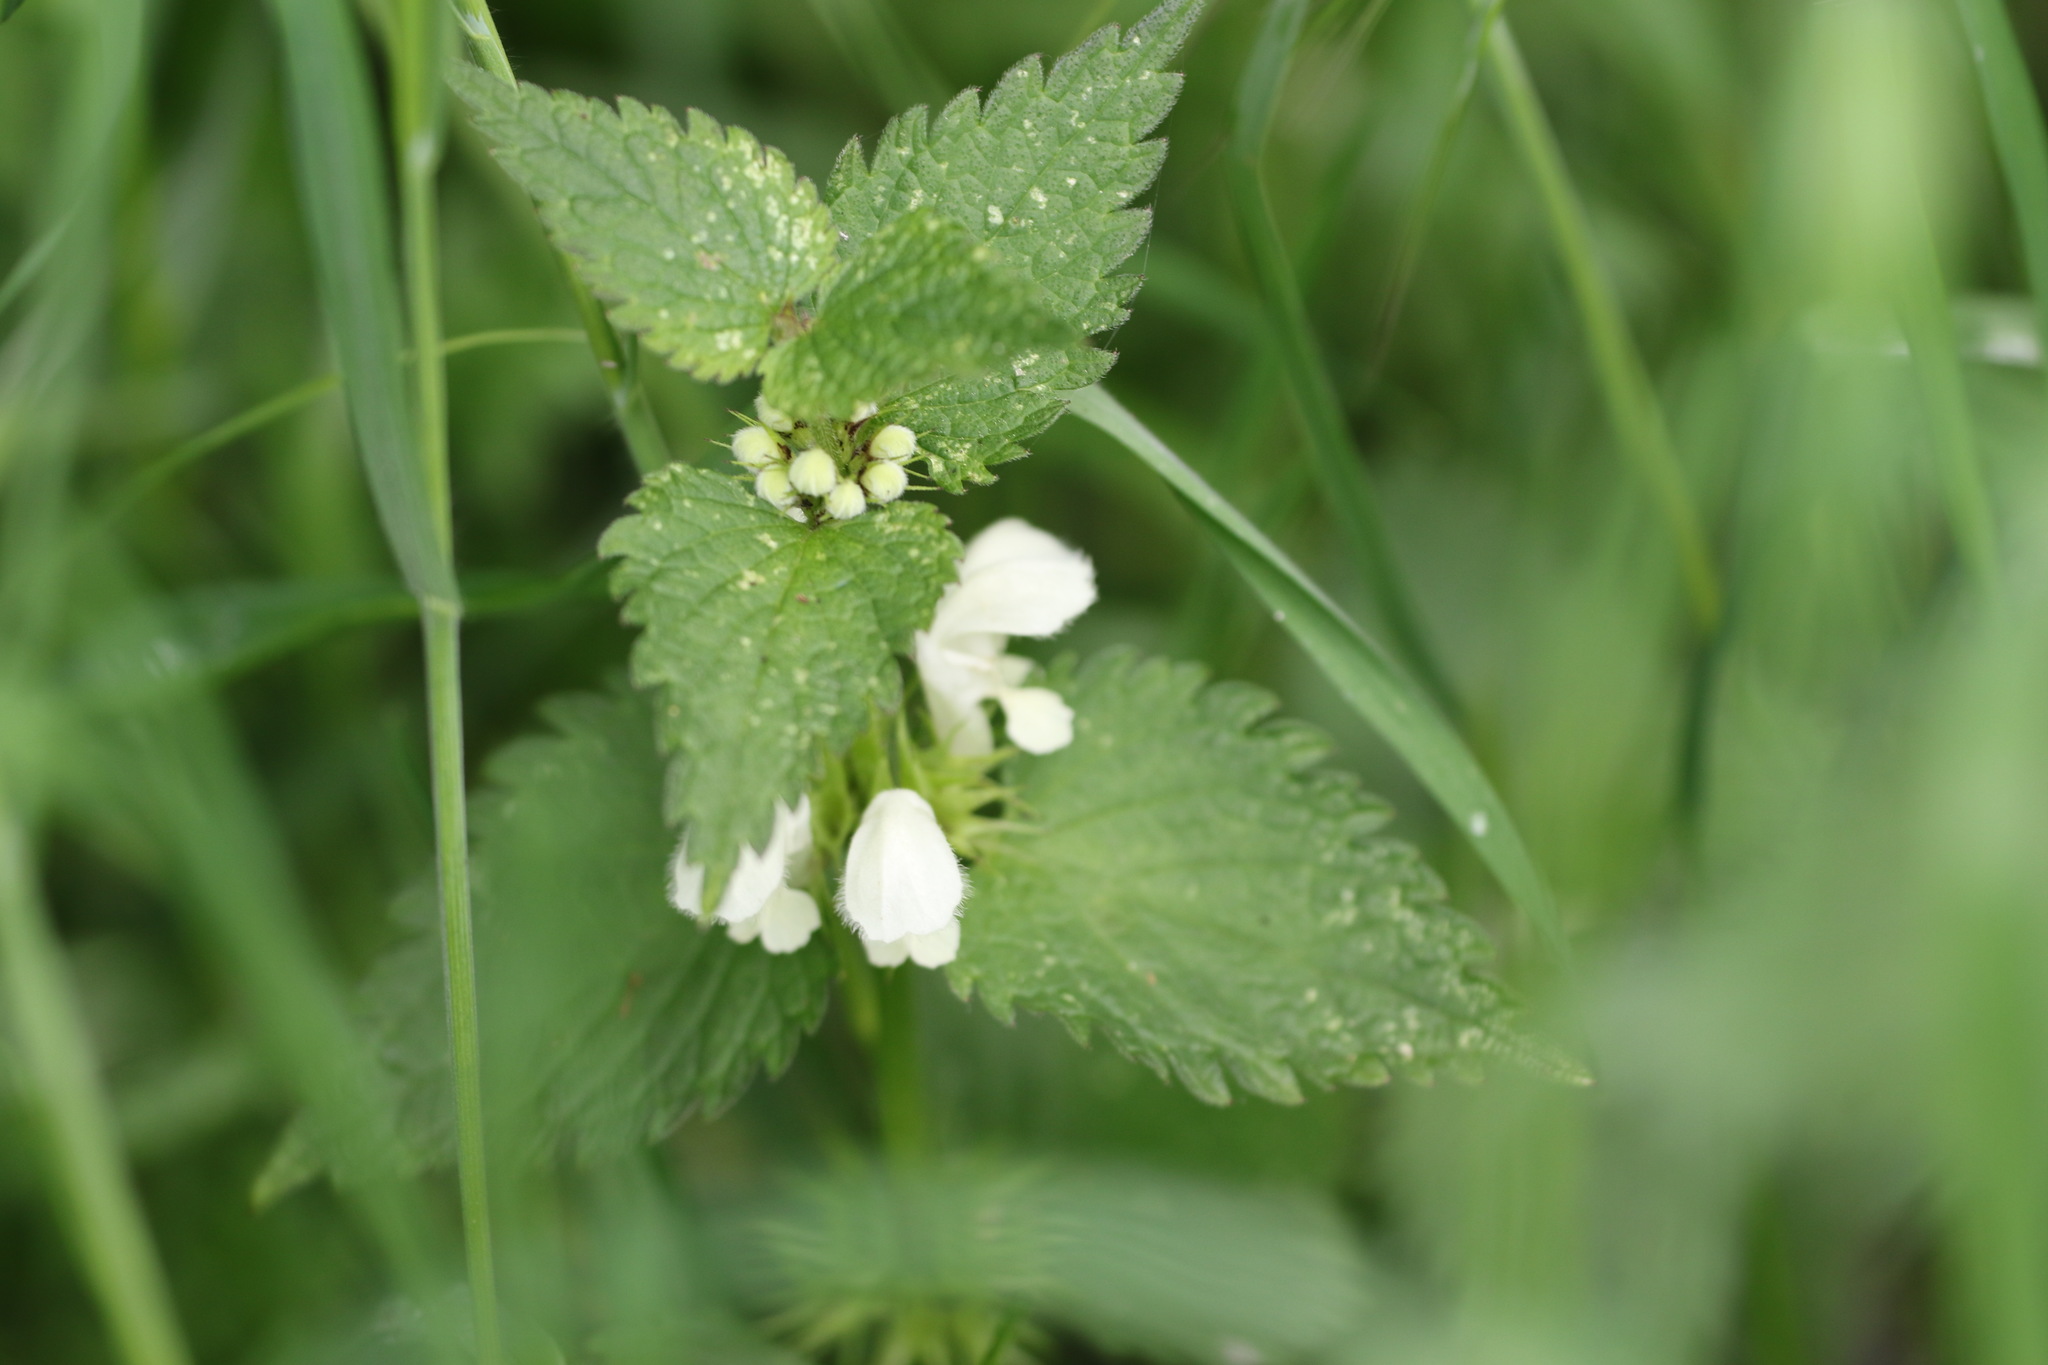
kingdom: Plantae
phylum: Tracheophyta
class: Magnoliopsida
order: Lamiales
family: Lamiaceae
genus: Lamium
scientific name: Lamium album
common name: White dead-nettle
